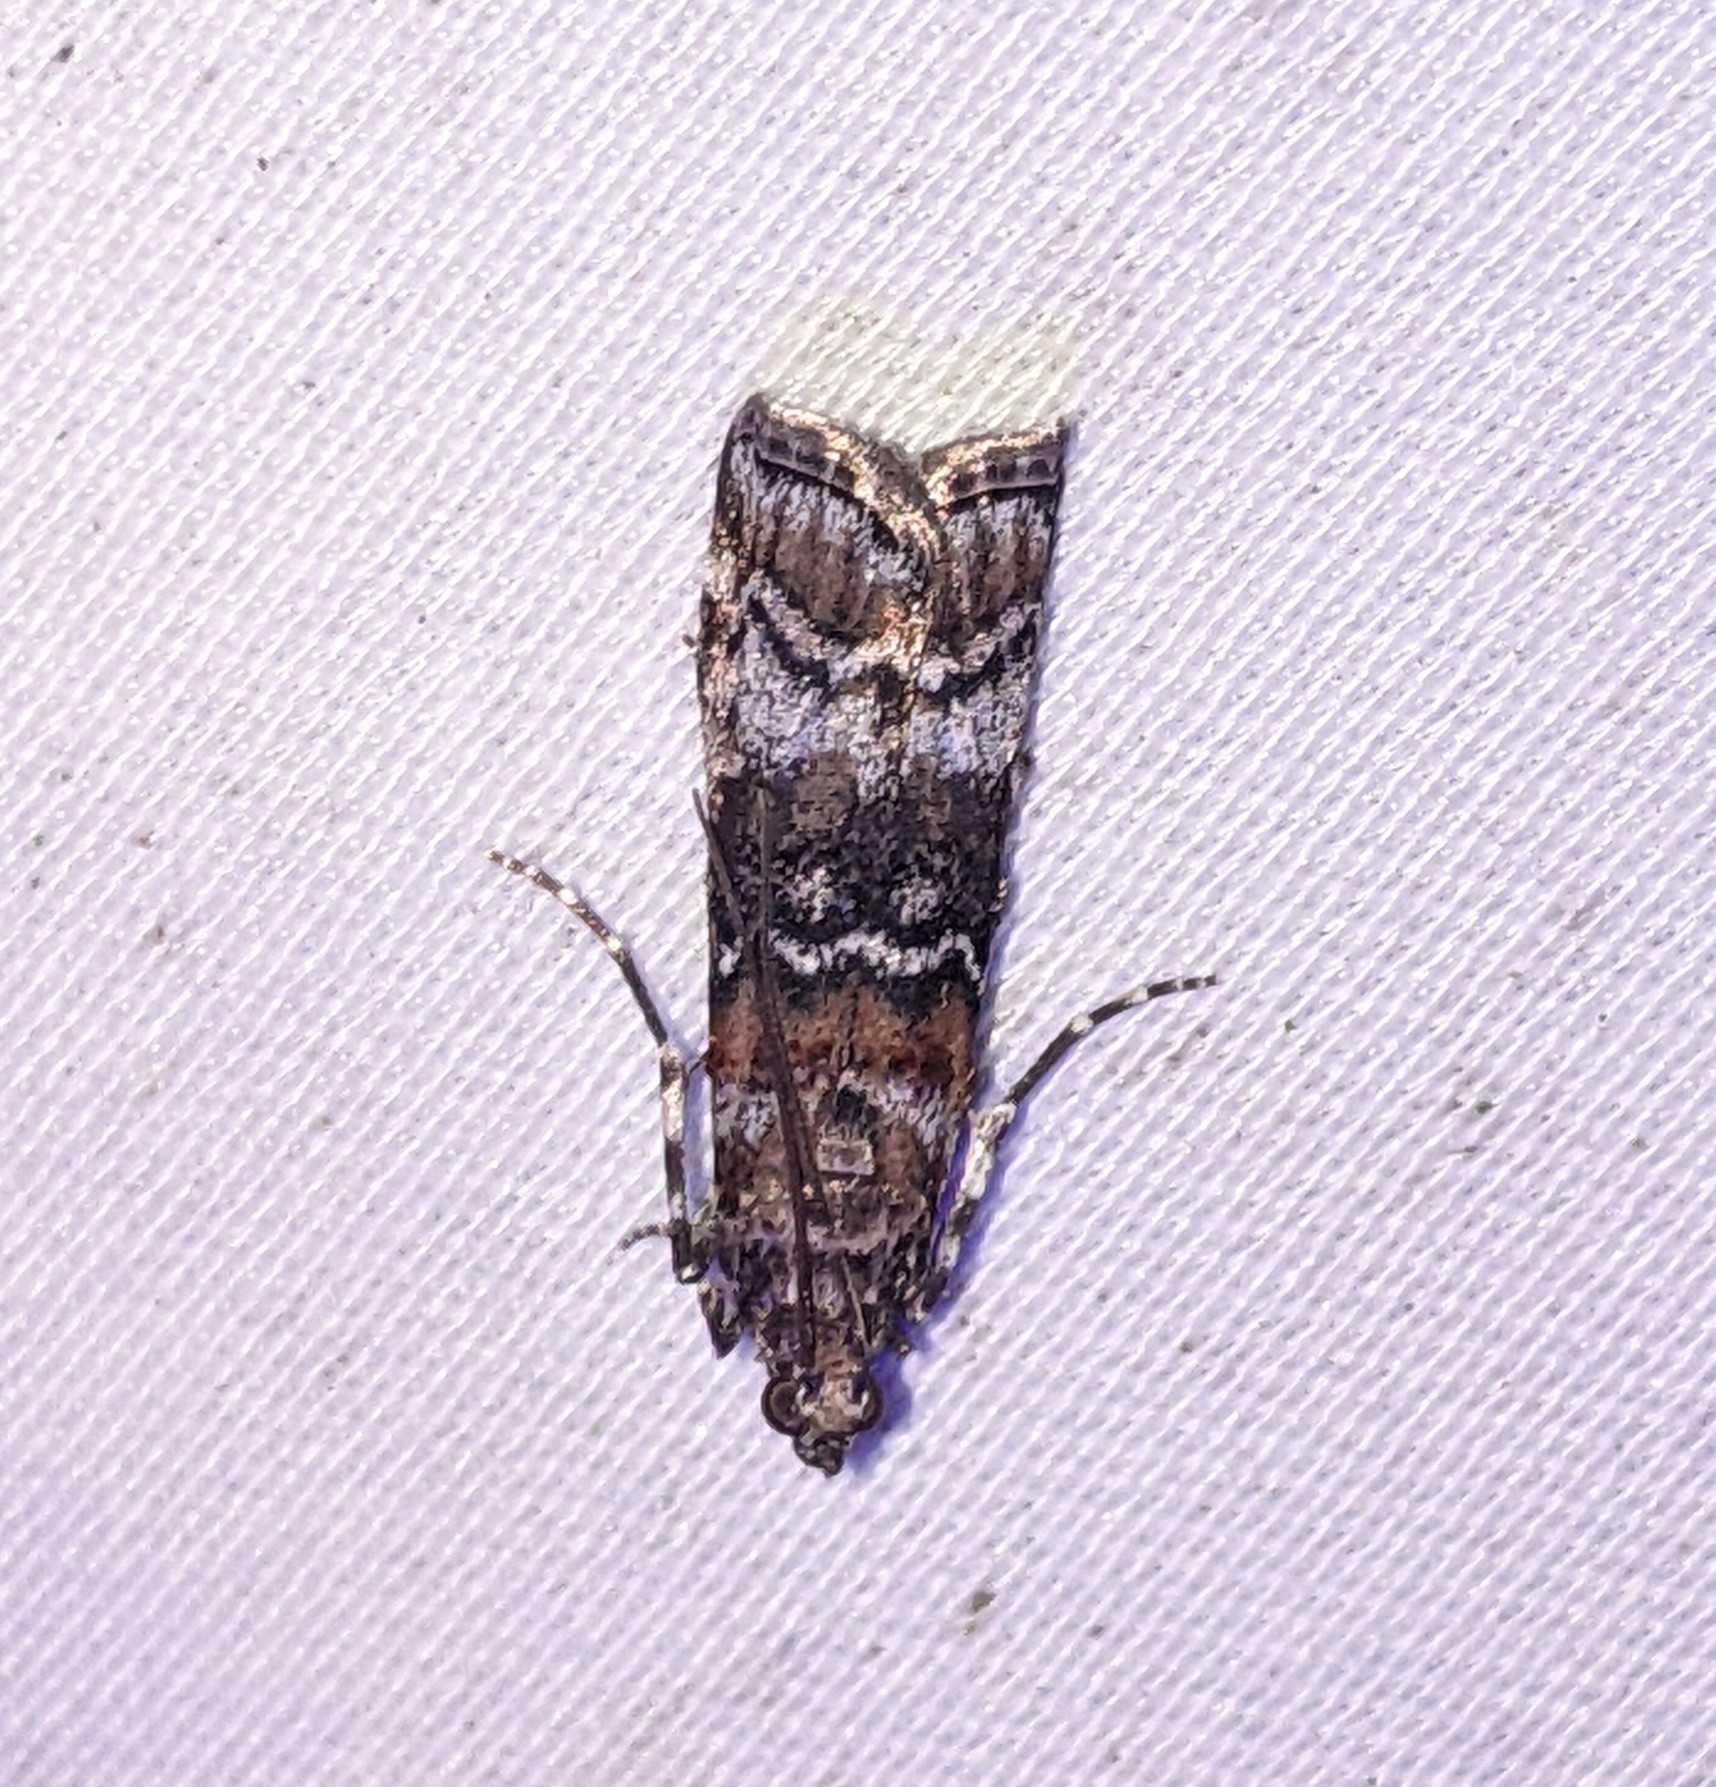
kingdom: Animalia
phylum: Arthropoda
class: Insecta
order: Lepidoptera
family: Pyralidae
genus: Dioryctria
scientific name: Dioryctria banksiella
